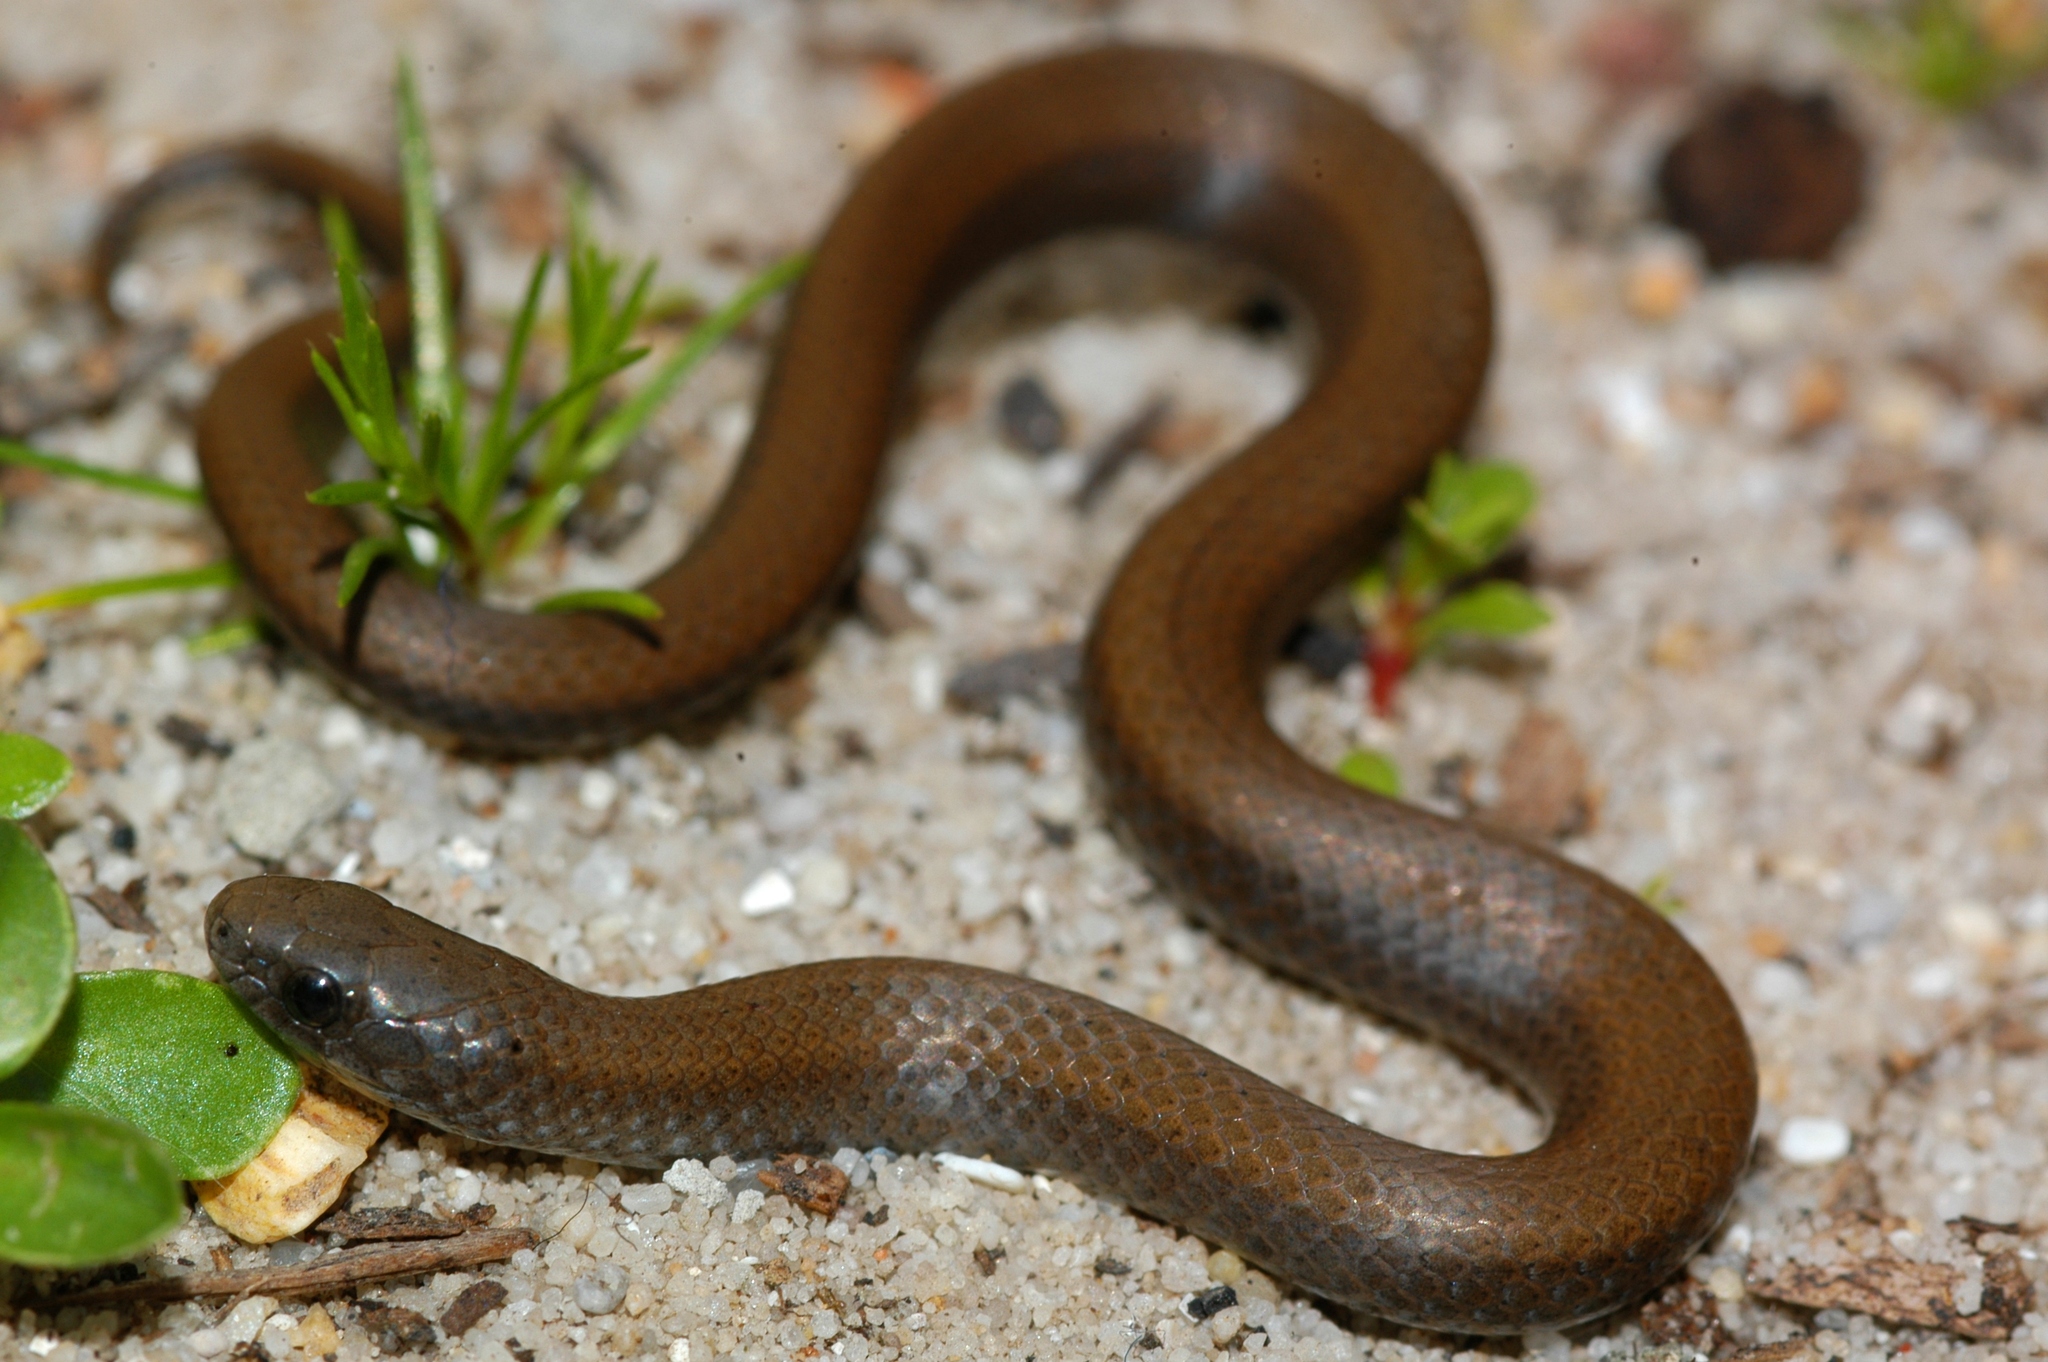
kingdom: Animalia
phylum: Chordata
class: Squamata
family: Pseudoxyrhophiidae
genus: Duberria
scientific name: Duberria lutrix
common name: Common slug eater
